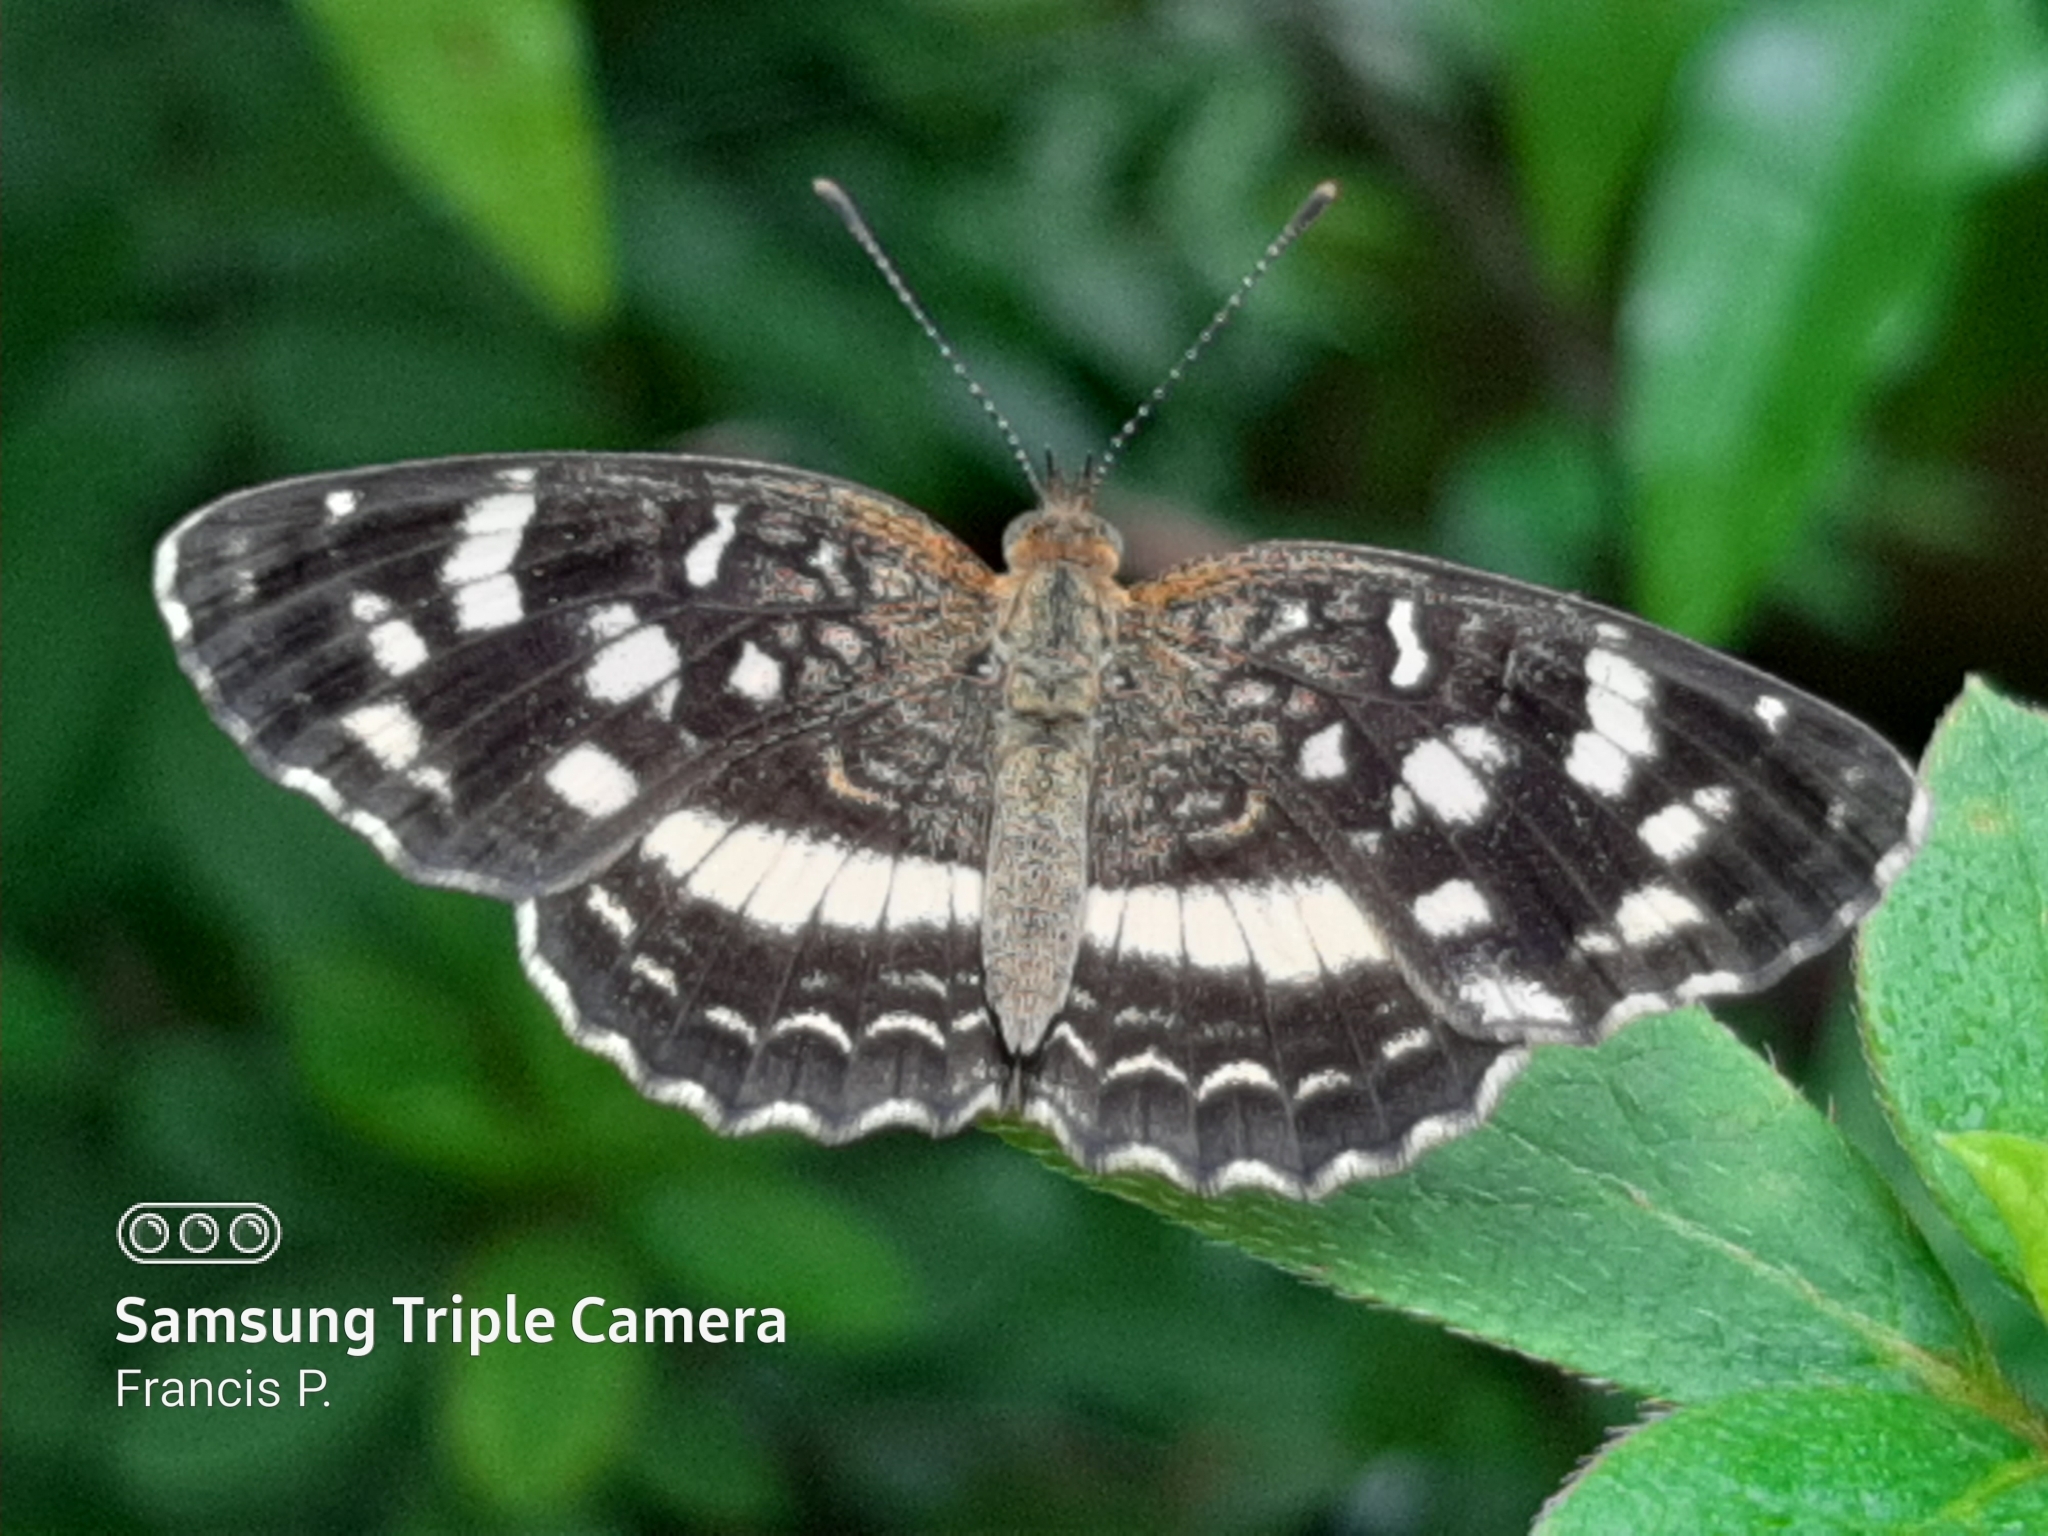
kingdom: Animalia
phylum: Arthropoda
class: Insecta
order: Lepidoptera
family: Nymphalidae
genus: Anthanassa
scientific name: Anthanassa tulcis
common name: Pale-banded crescent
